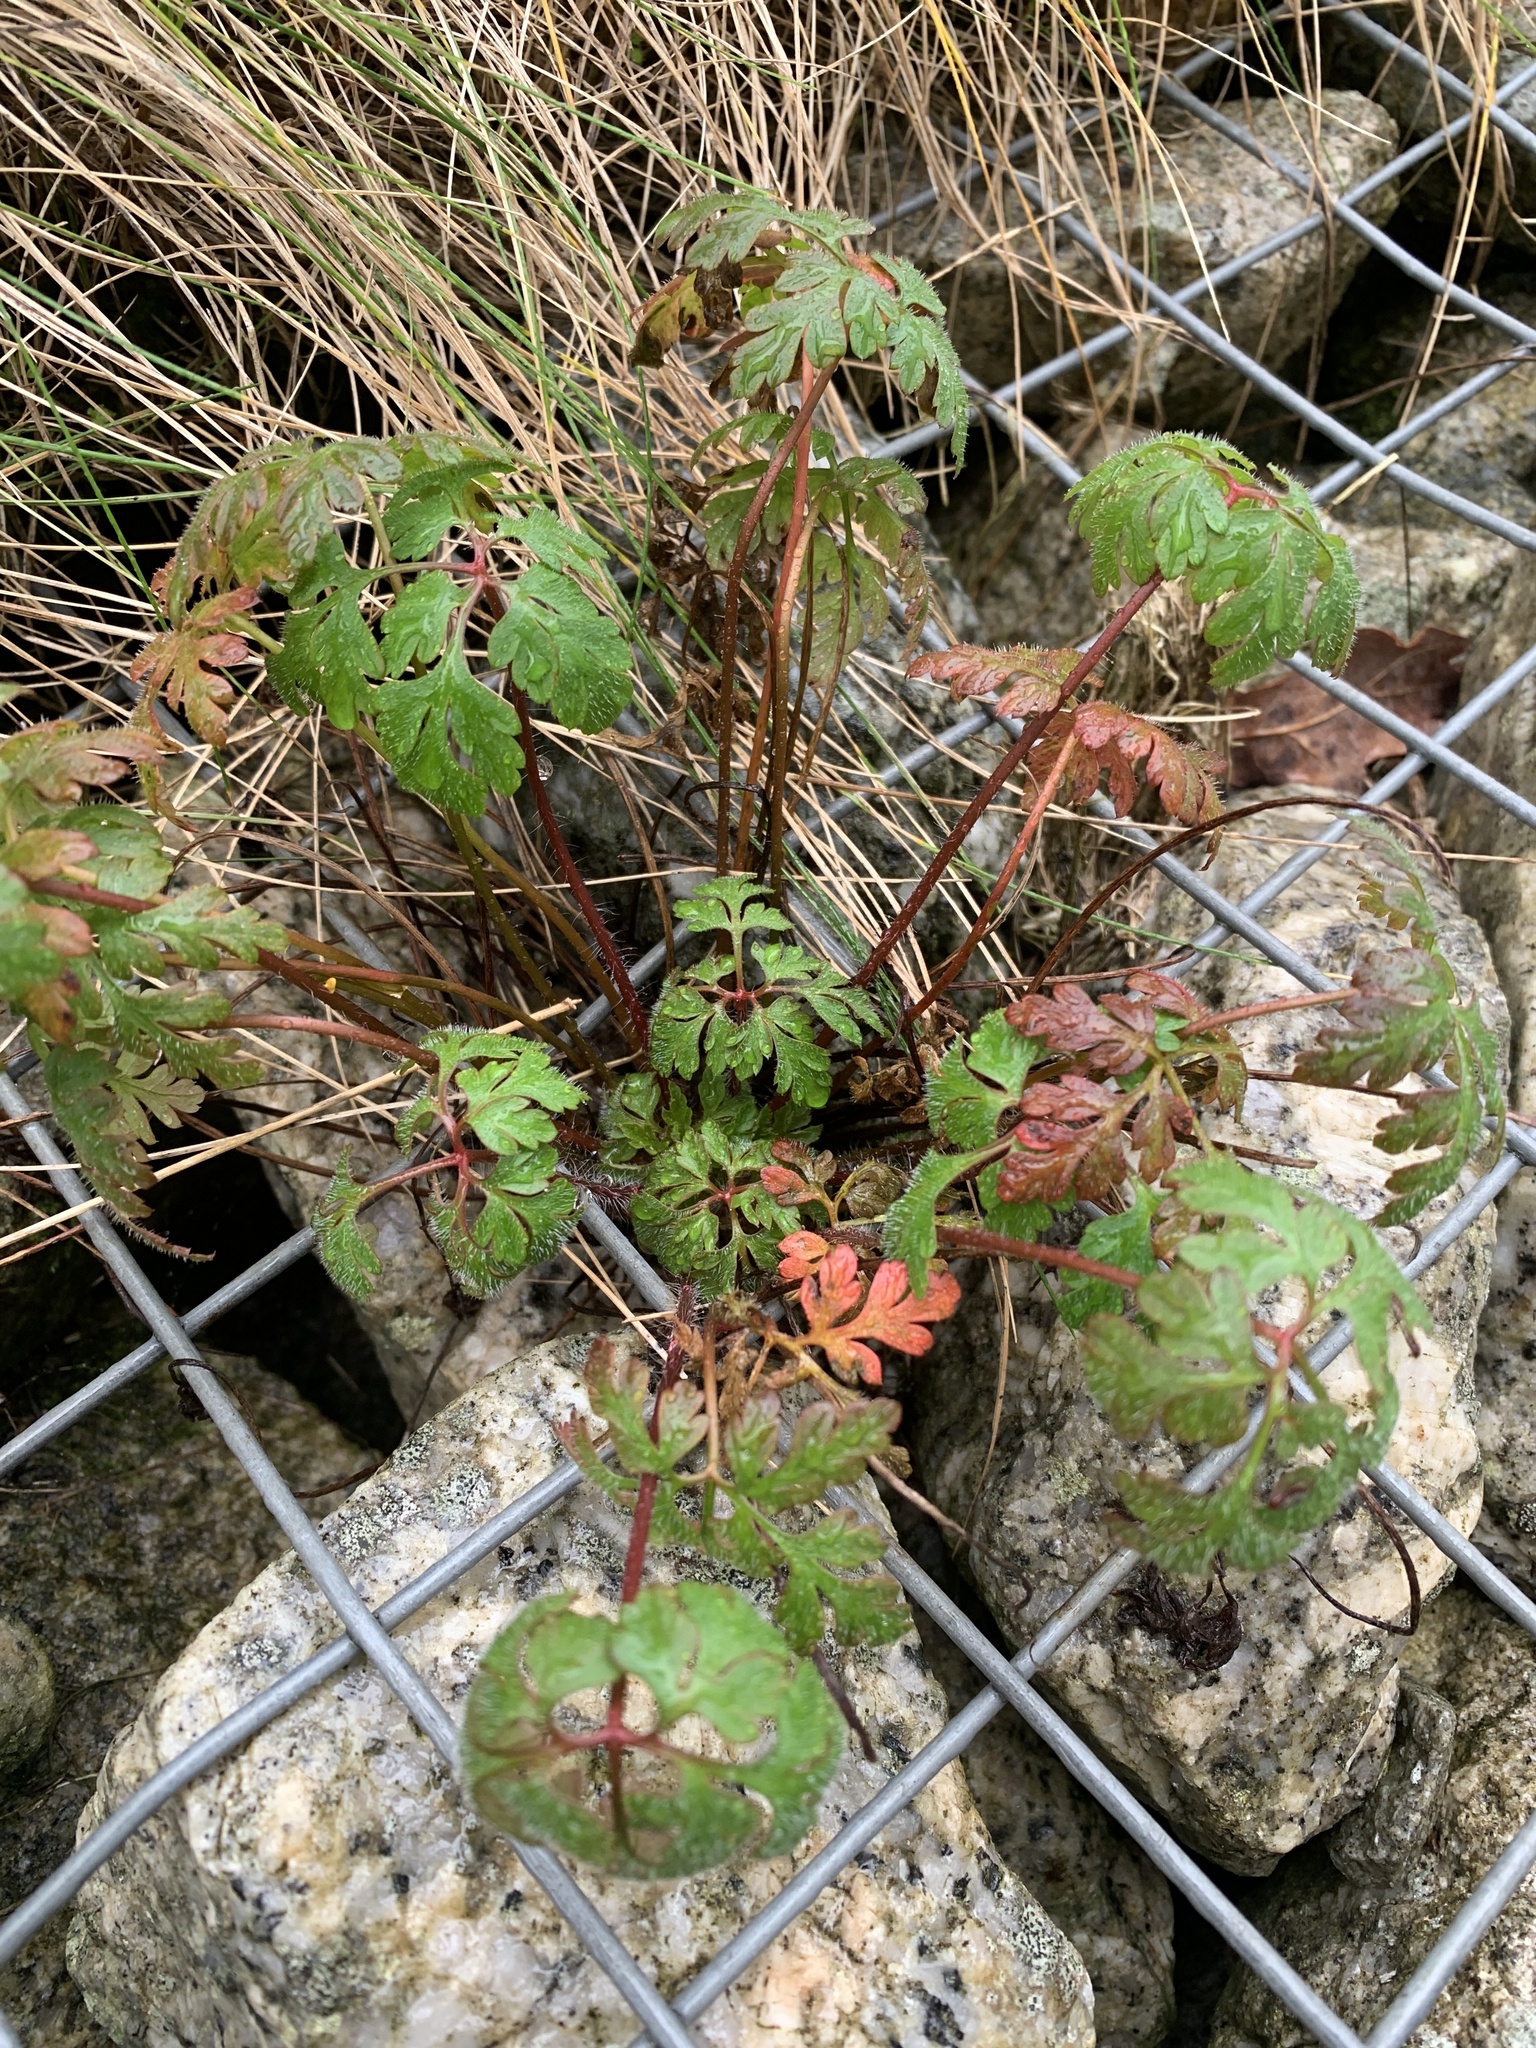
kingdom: Plantae
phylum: Tracheophyta
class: Magnoliopsida
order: Geraniales
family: Geraniaceae
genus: Geranium
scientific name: Geranium robertianum
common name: Herb-robert
